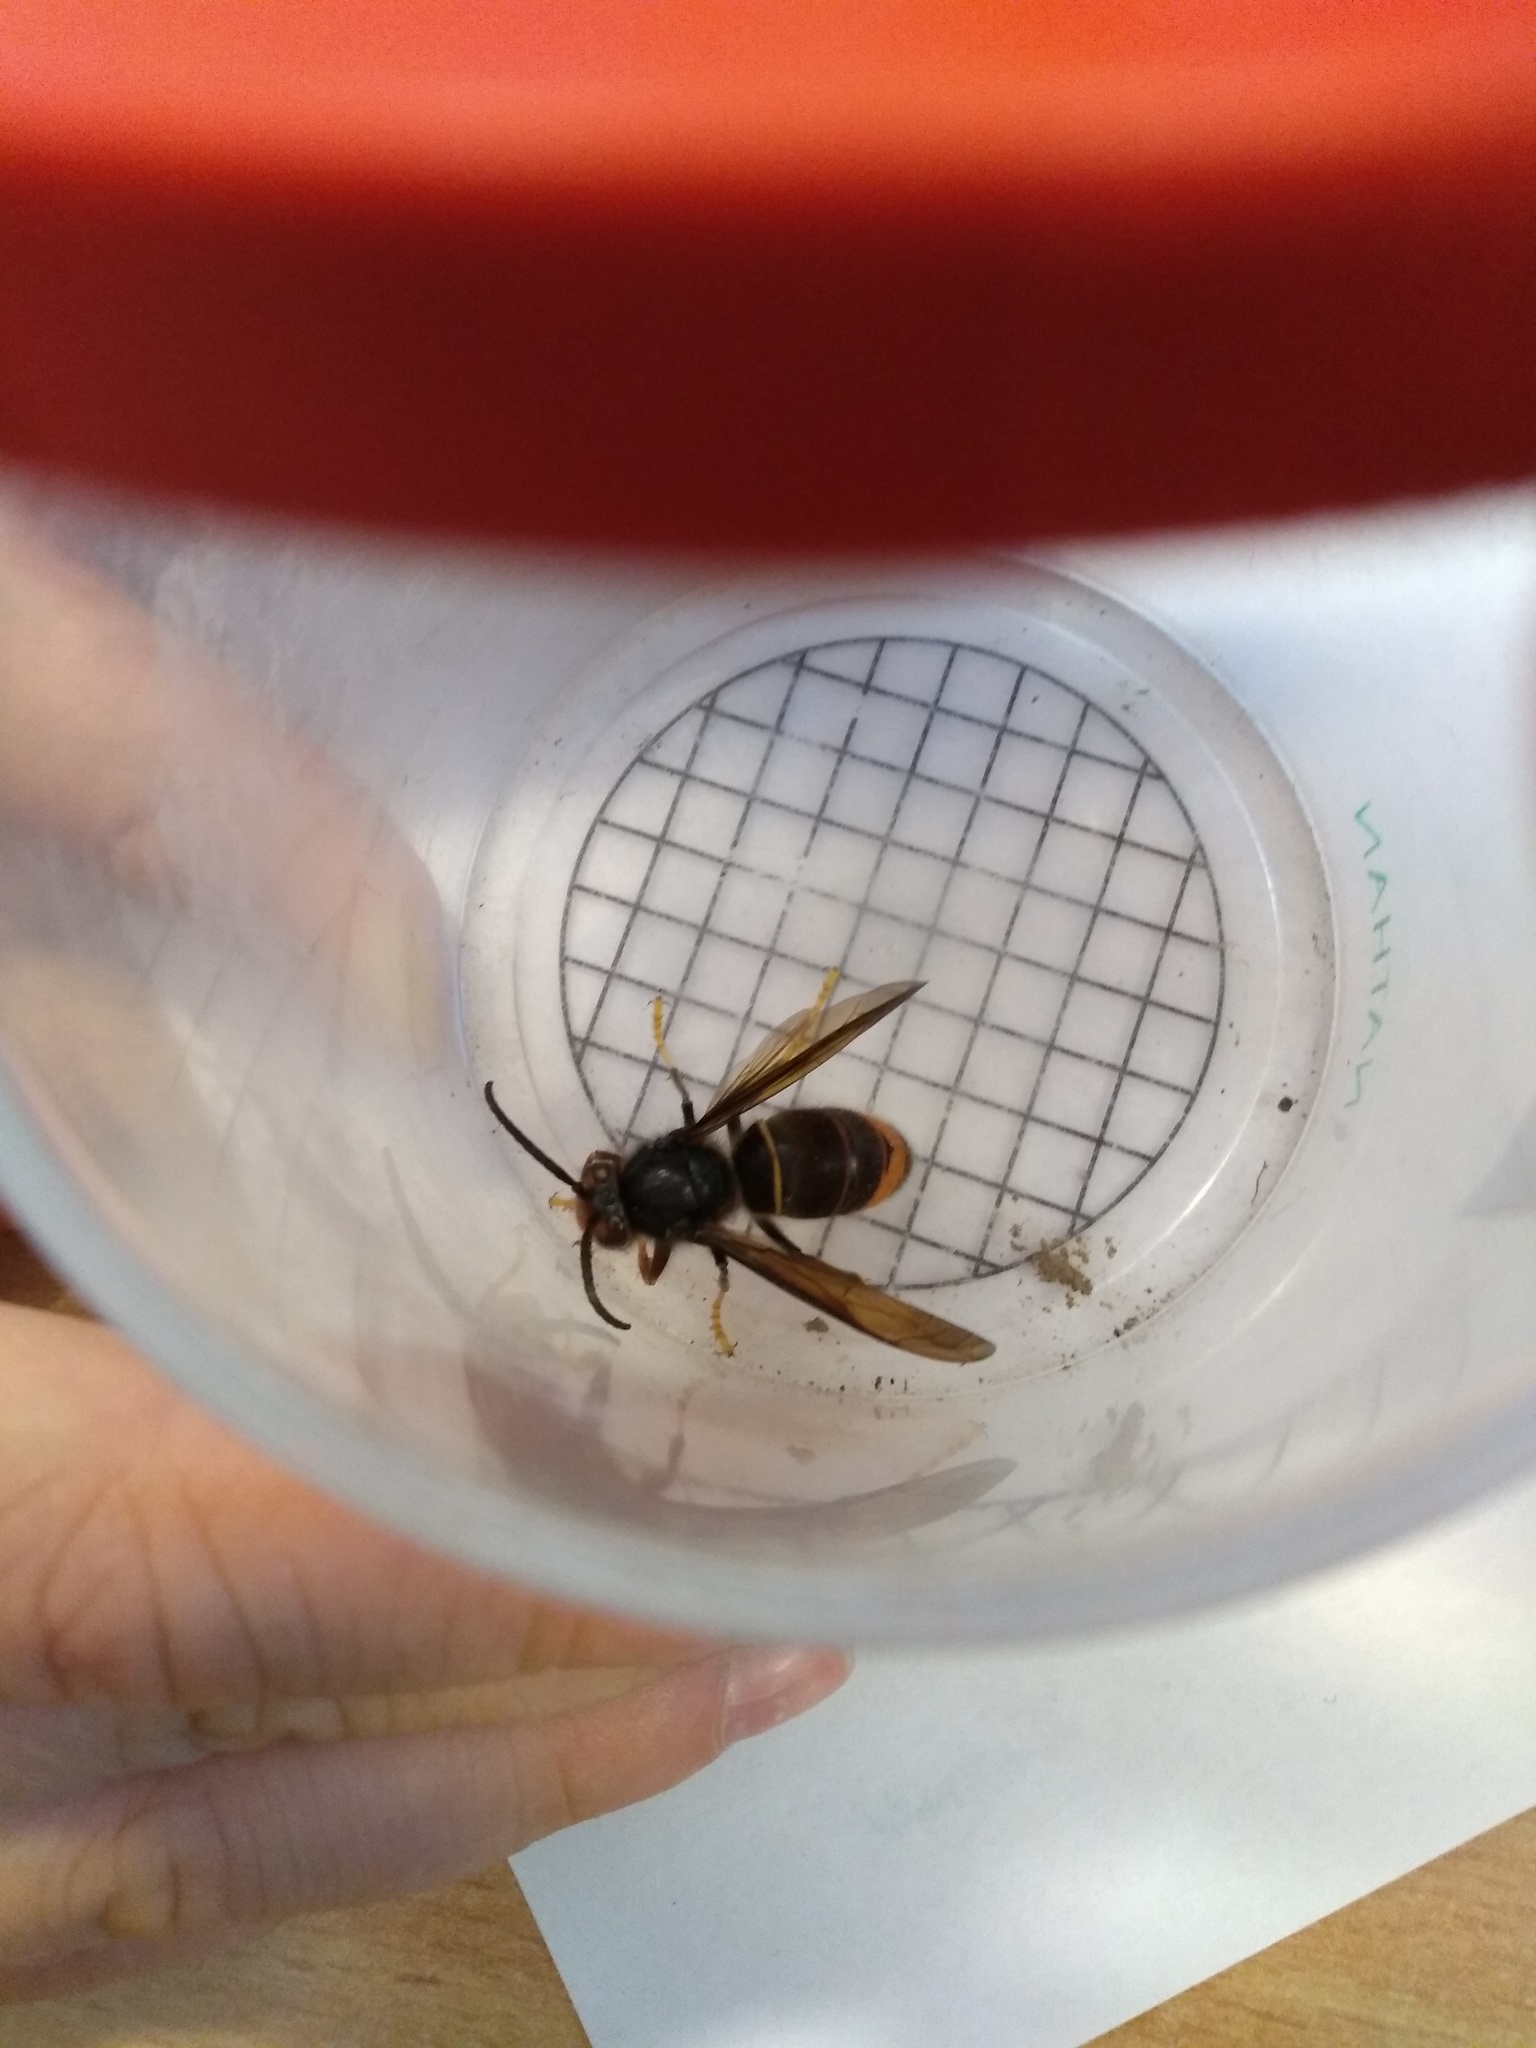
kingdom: Animalia
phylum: Arthropoda
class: Insecta
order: Hymenoptera
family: Vespidae
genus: Vespa
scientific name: Vespa velutina
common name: Asian hornet
